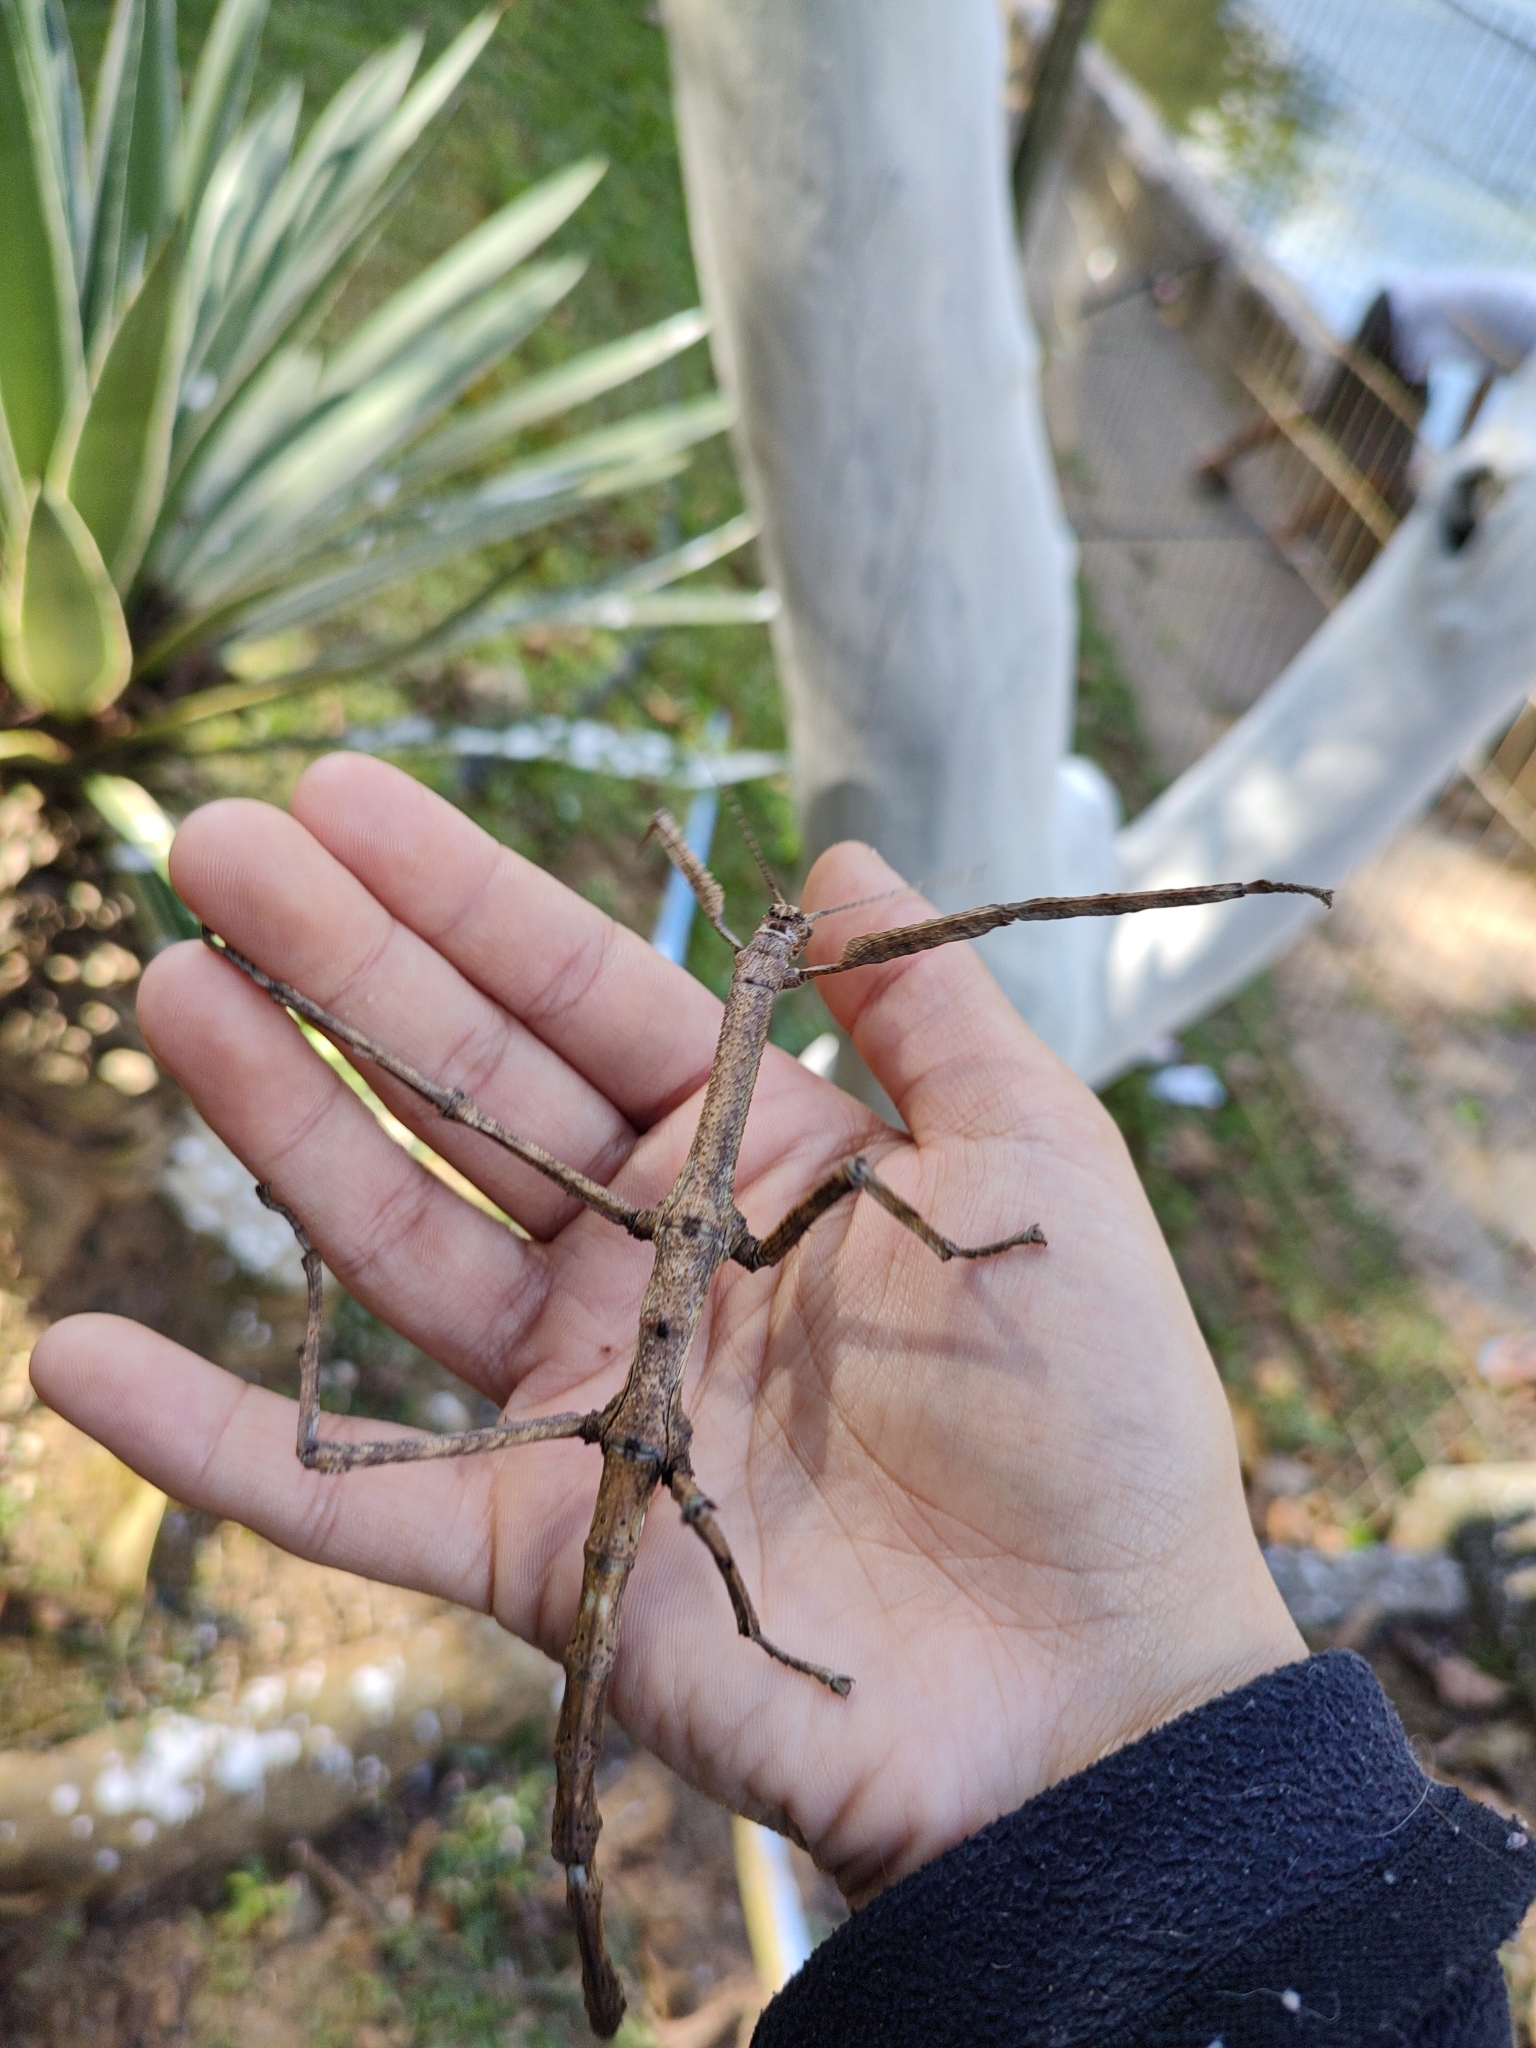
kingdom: Animalia
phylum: Arthropoda
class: Insecta
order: Phasmida
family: Phasmatidae
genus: Cladomorphus
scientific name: Cladomorphus phyllinus
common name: Brazilian giant stick insect
